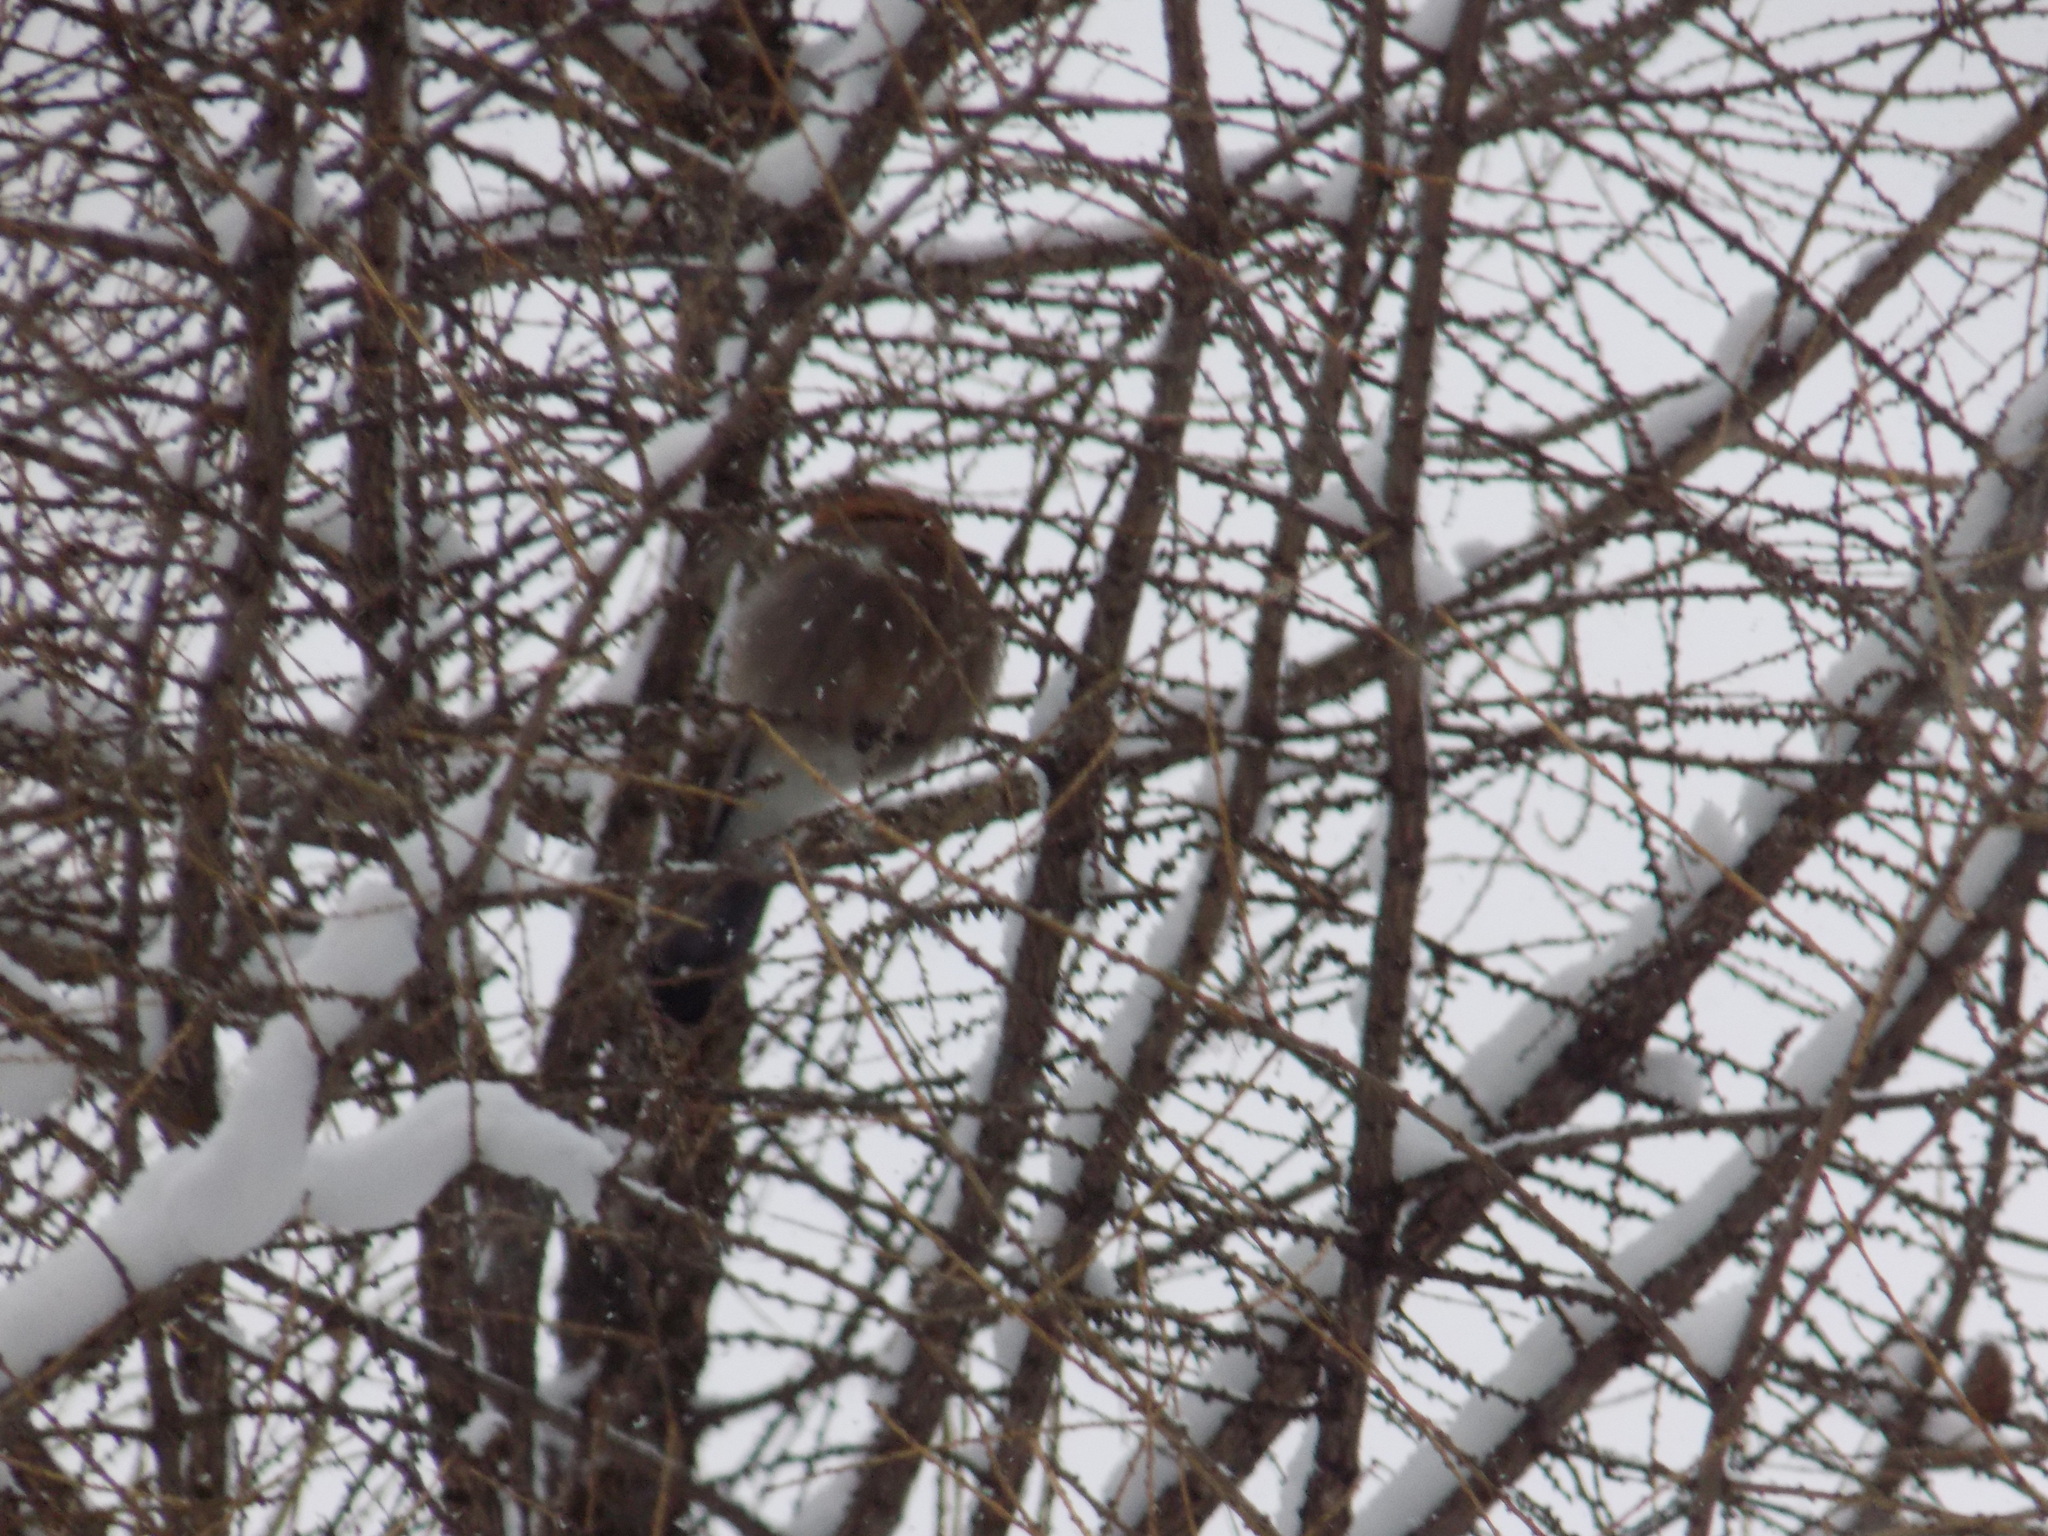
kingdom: Animalia
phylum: Chordata
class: Aves
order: Passeriformes
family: Corvidae
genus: Garrulus
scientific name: Garrulus glandarius
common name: Eurasian jay
